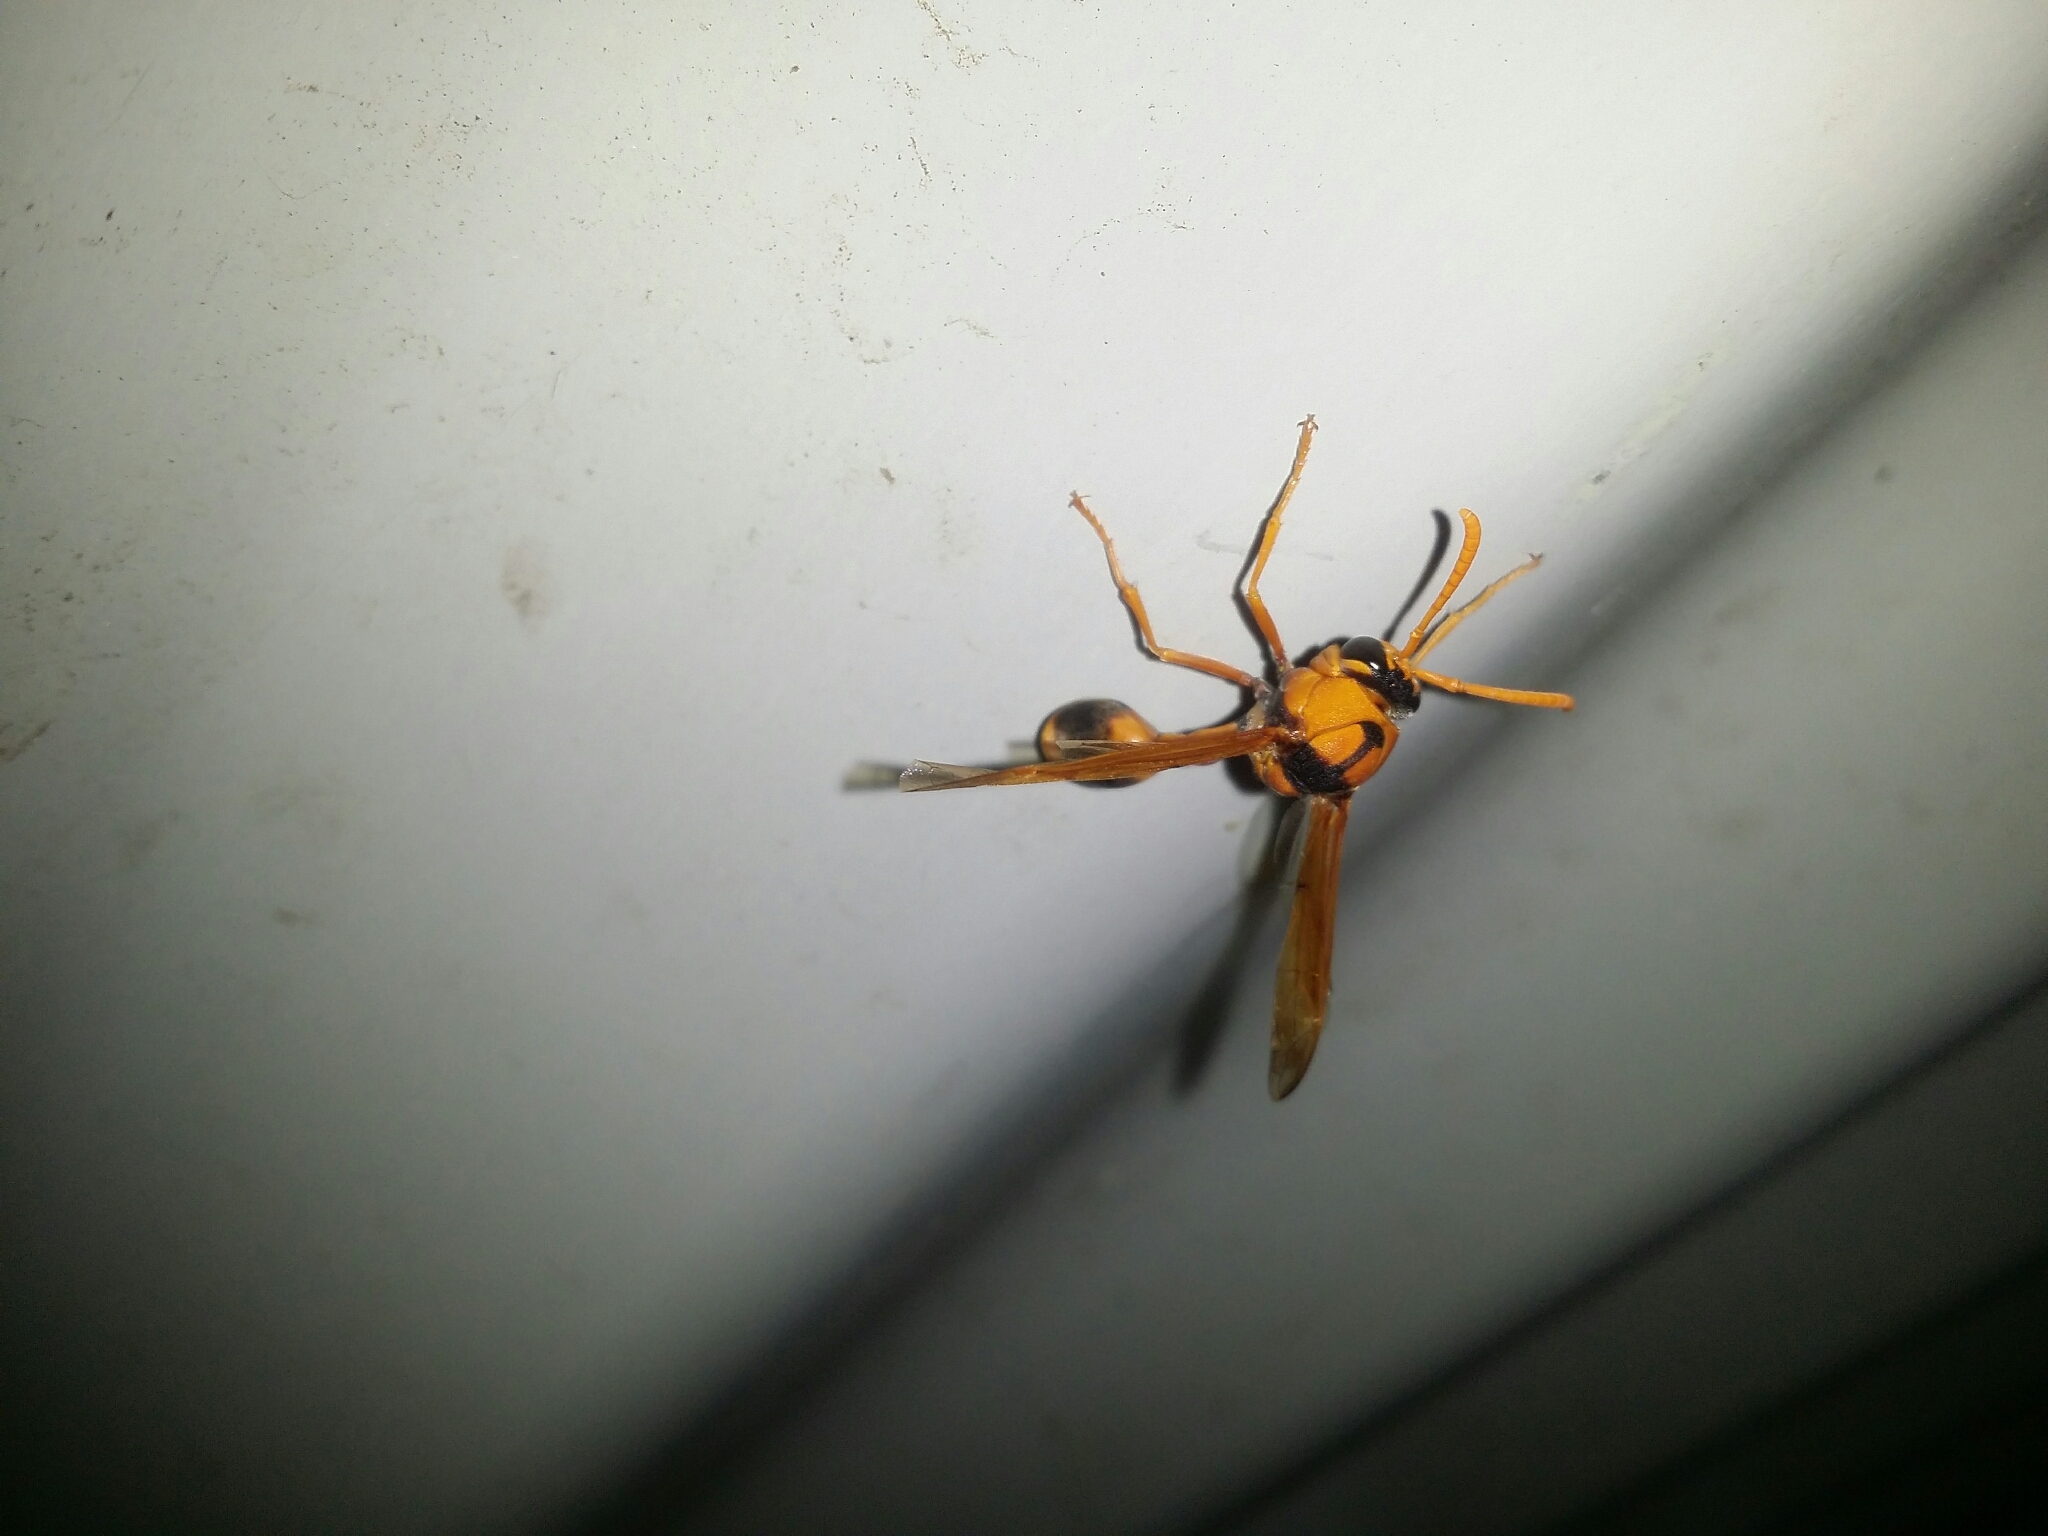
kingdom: Animalia
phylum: Arthropoda
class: Insecta
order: Hymenoptera
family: Eumenidae
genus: Delta
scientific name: Delta bicinctum
